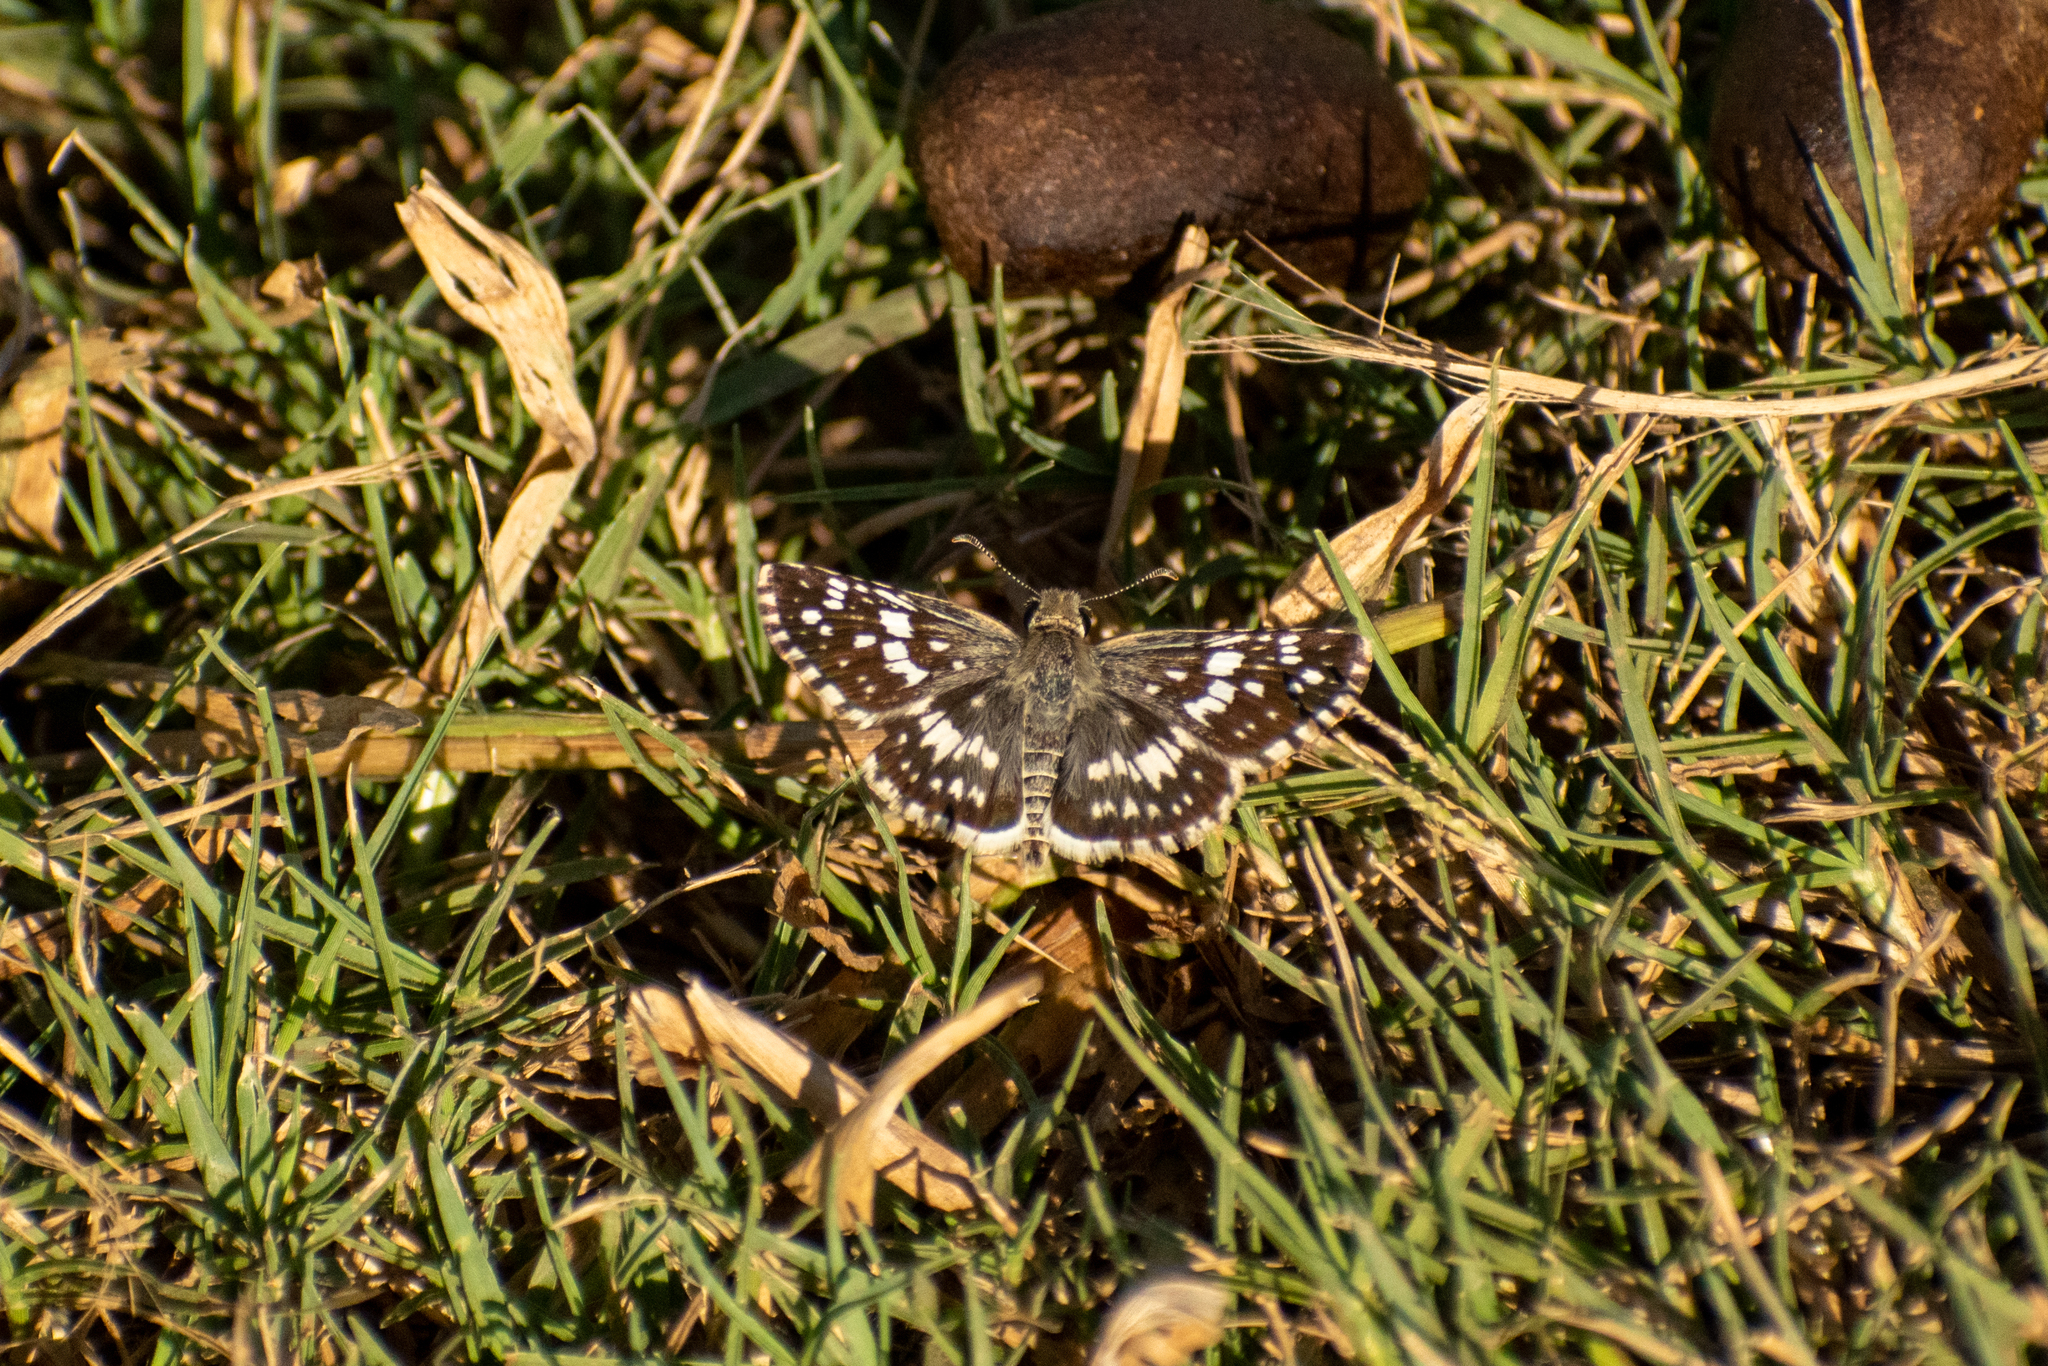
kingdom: Animalia
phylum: Arthropoda
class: Insecta
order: Lepidoptera
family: Hesperiidae
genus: Burnsius
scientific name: Burnsius orcynoides
